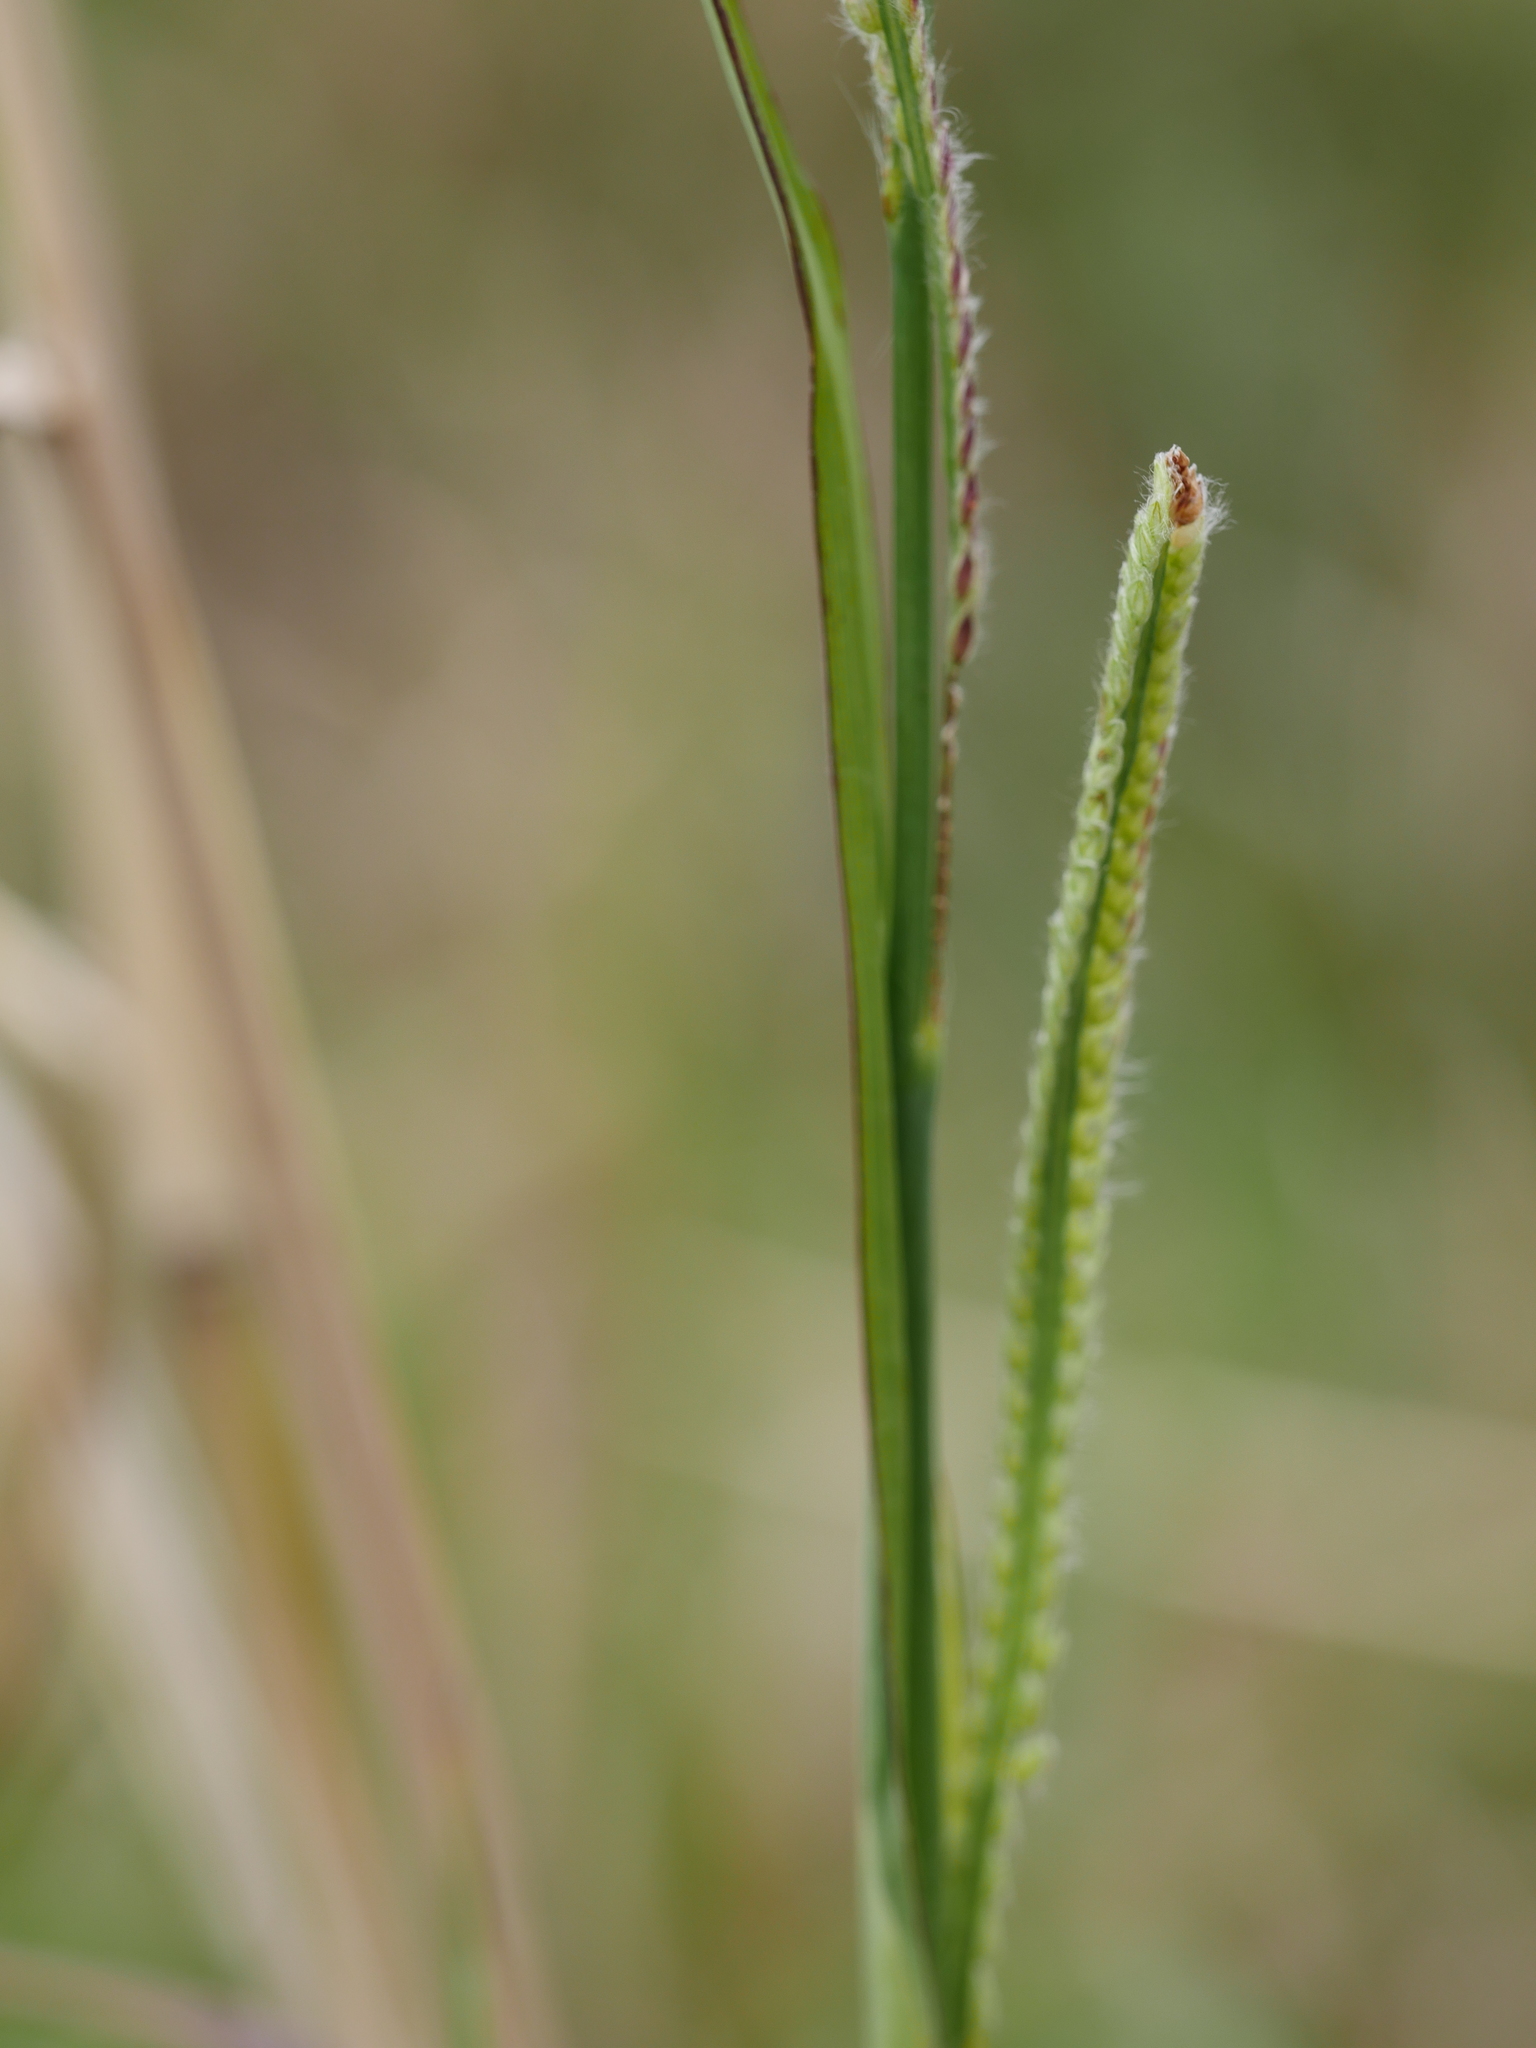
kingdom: Plantae
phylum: Tracheophyta
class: Liliopsida
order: Poales
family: Poaceae
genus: Paspalum
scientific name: Paspalum orbiculare
